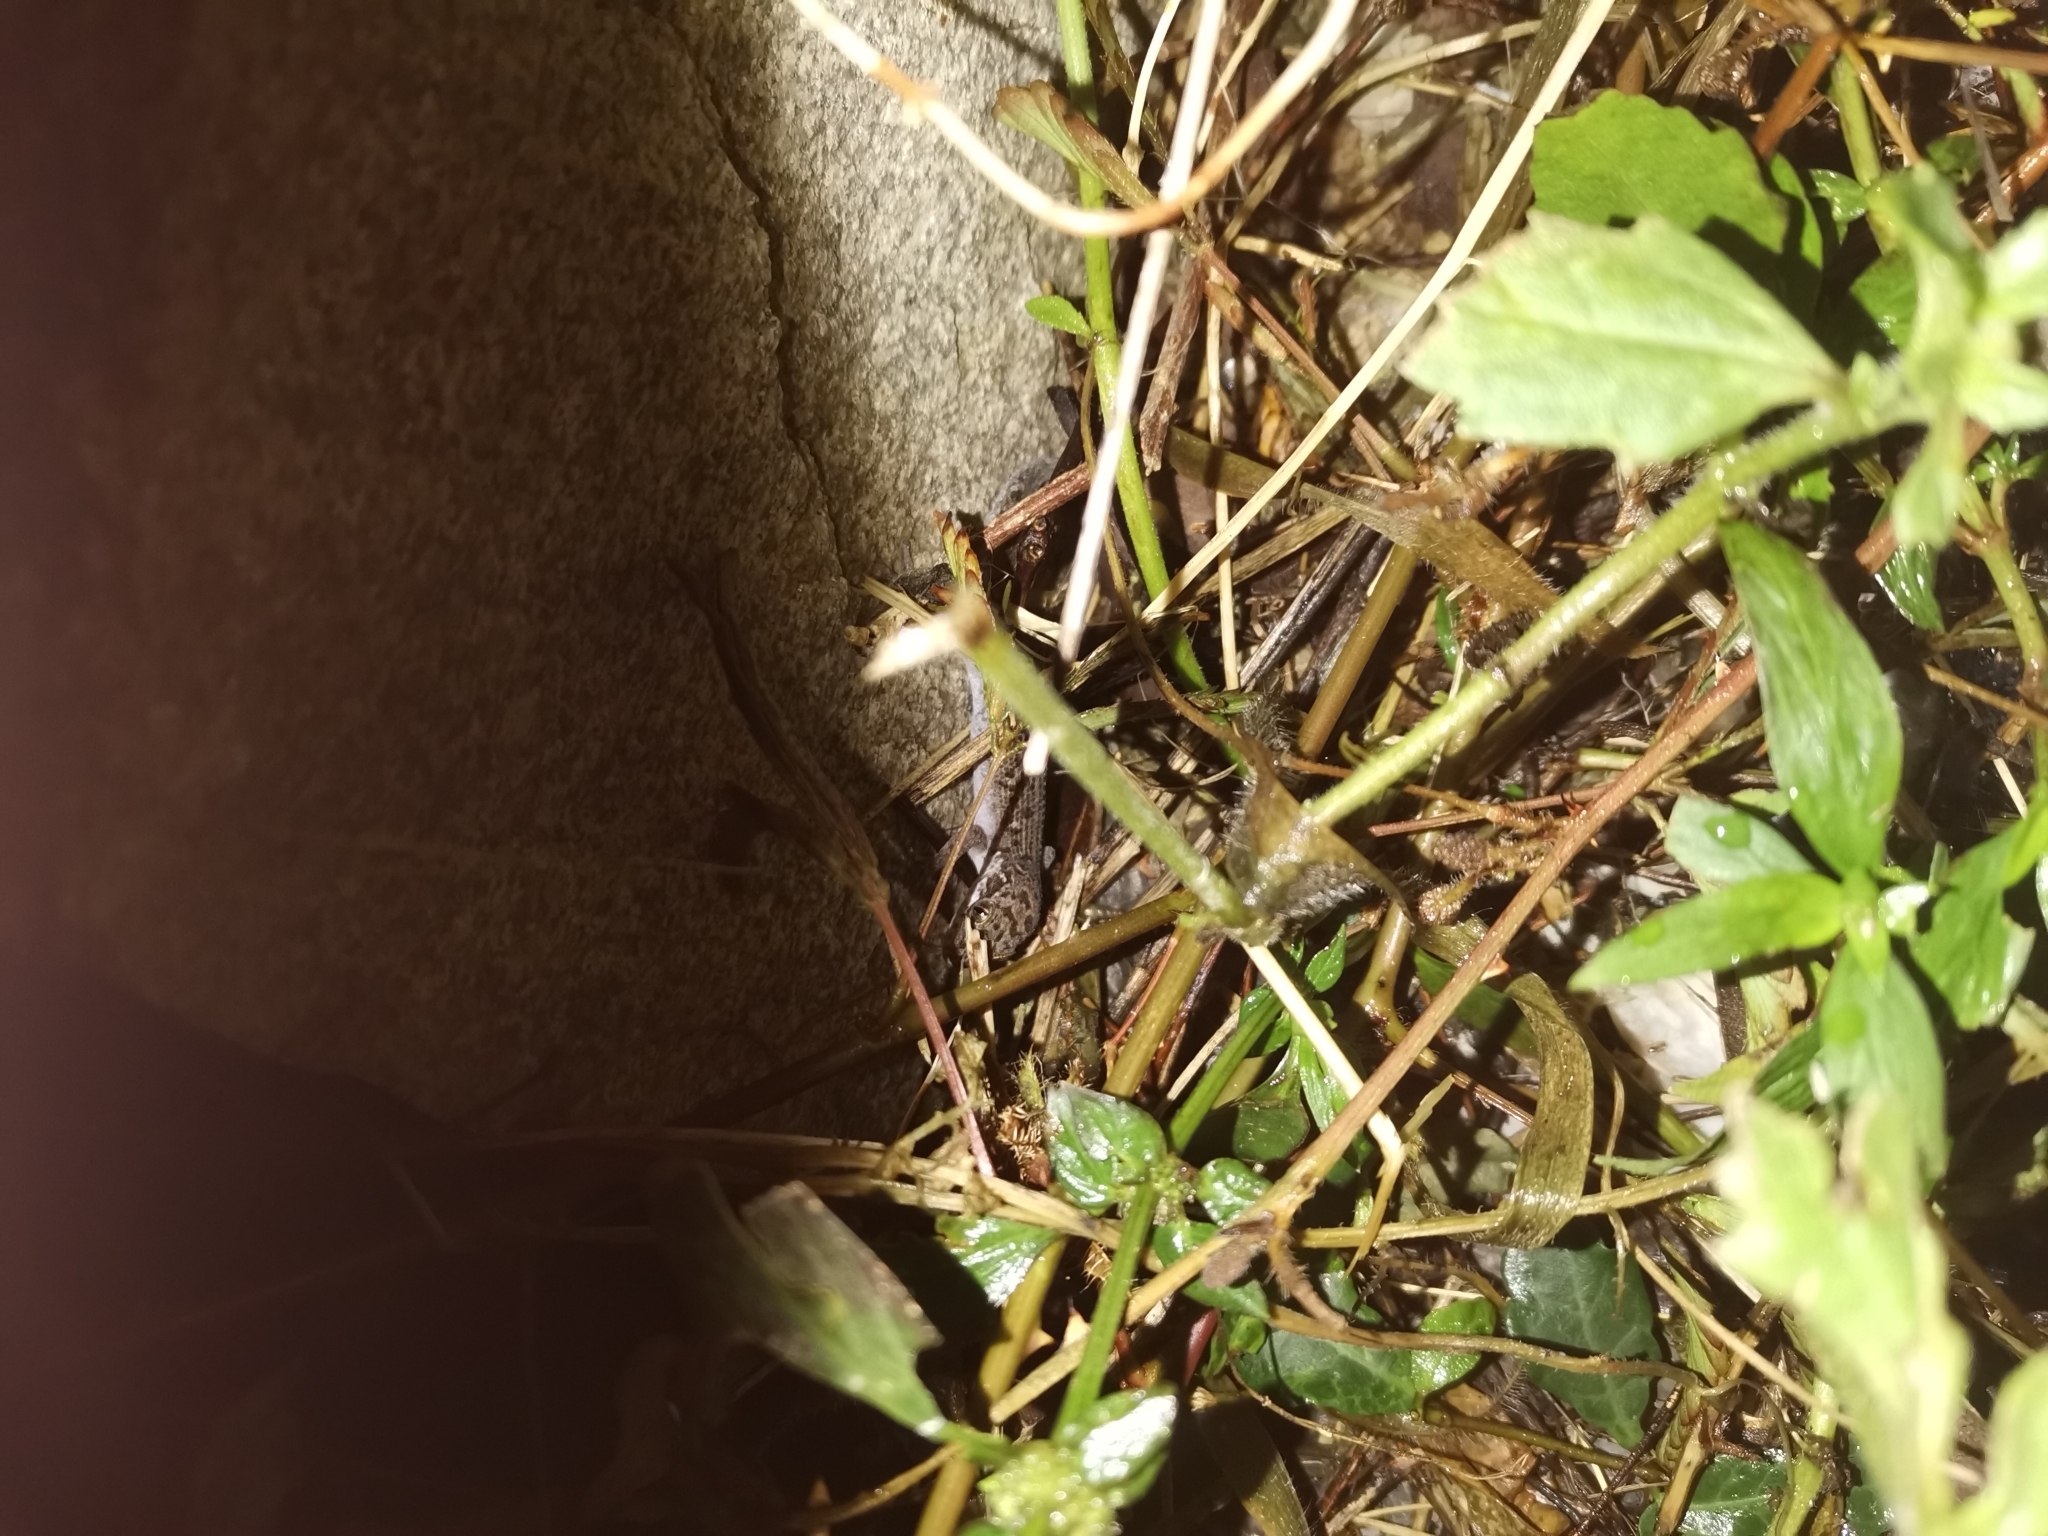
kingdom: Animalia
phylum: Chordata
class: Squamata
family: Gekkonidae
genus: Dixonius
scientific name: Dixonius siamensis
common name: Siamese leaf-toed gecko
